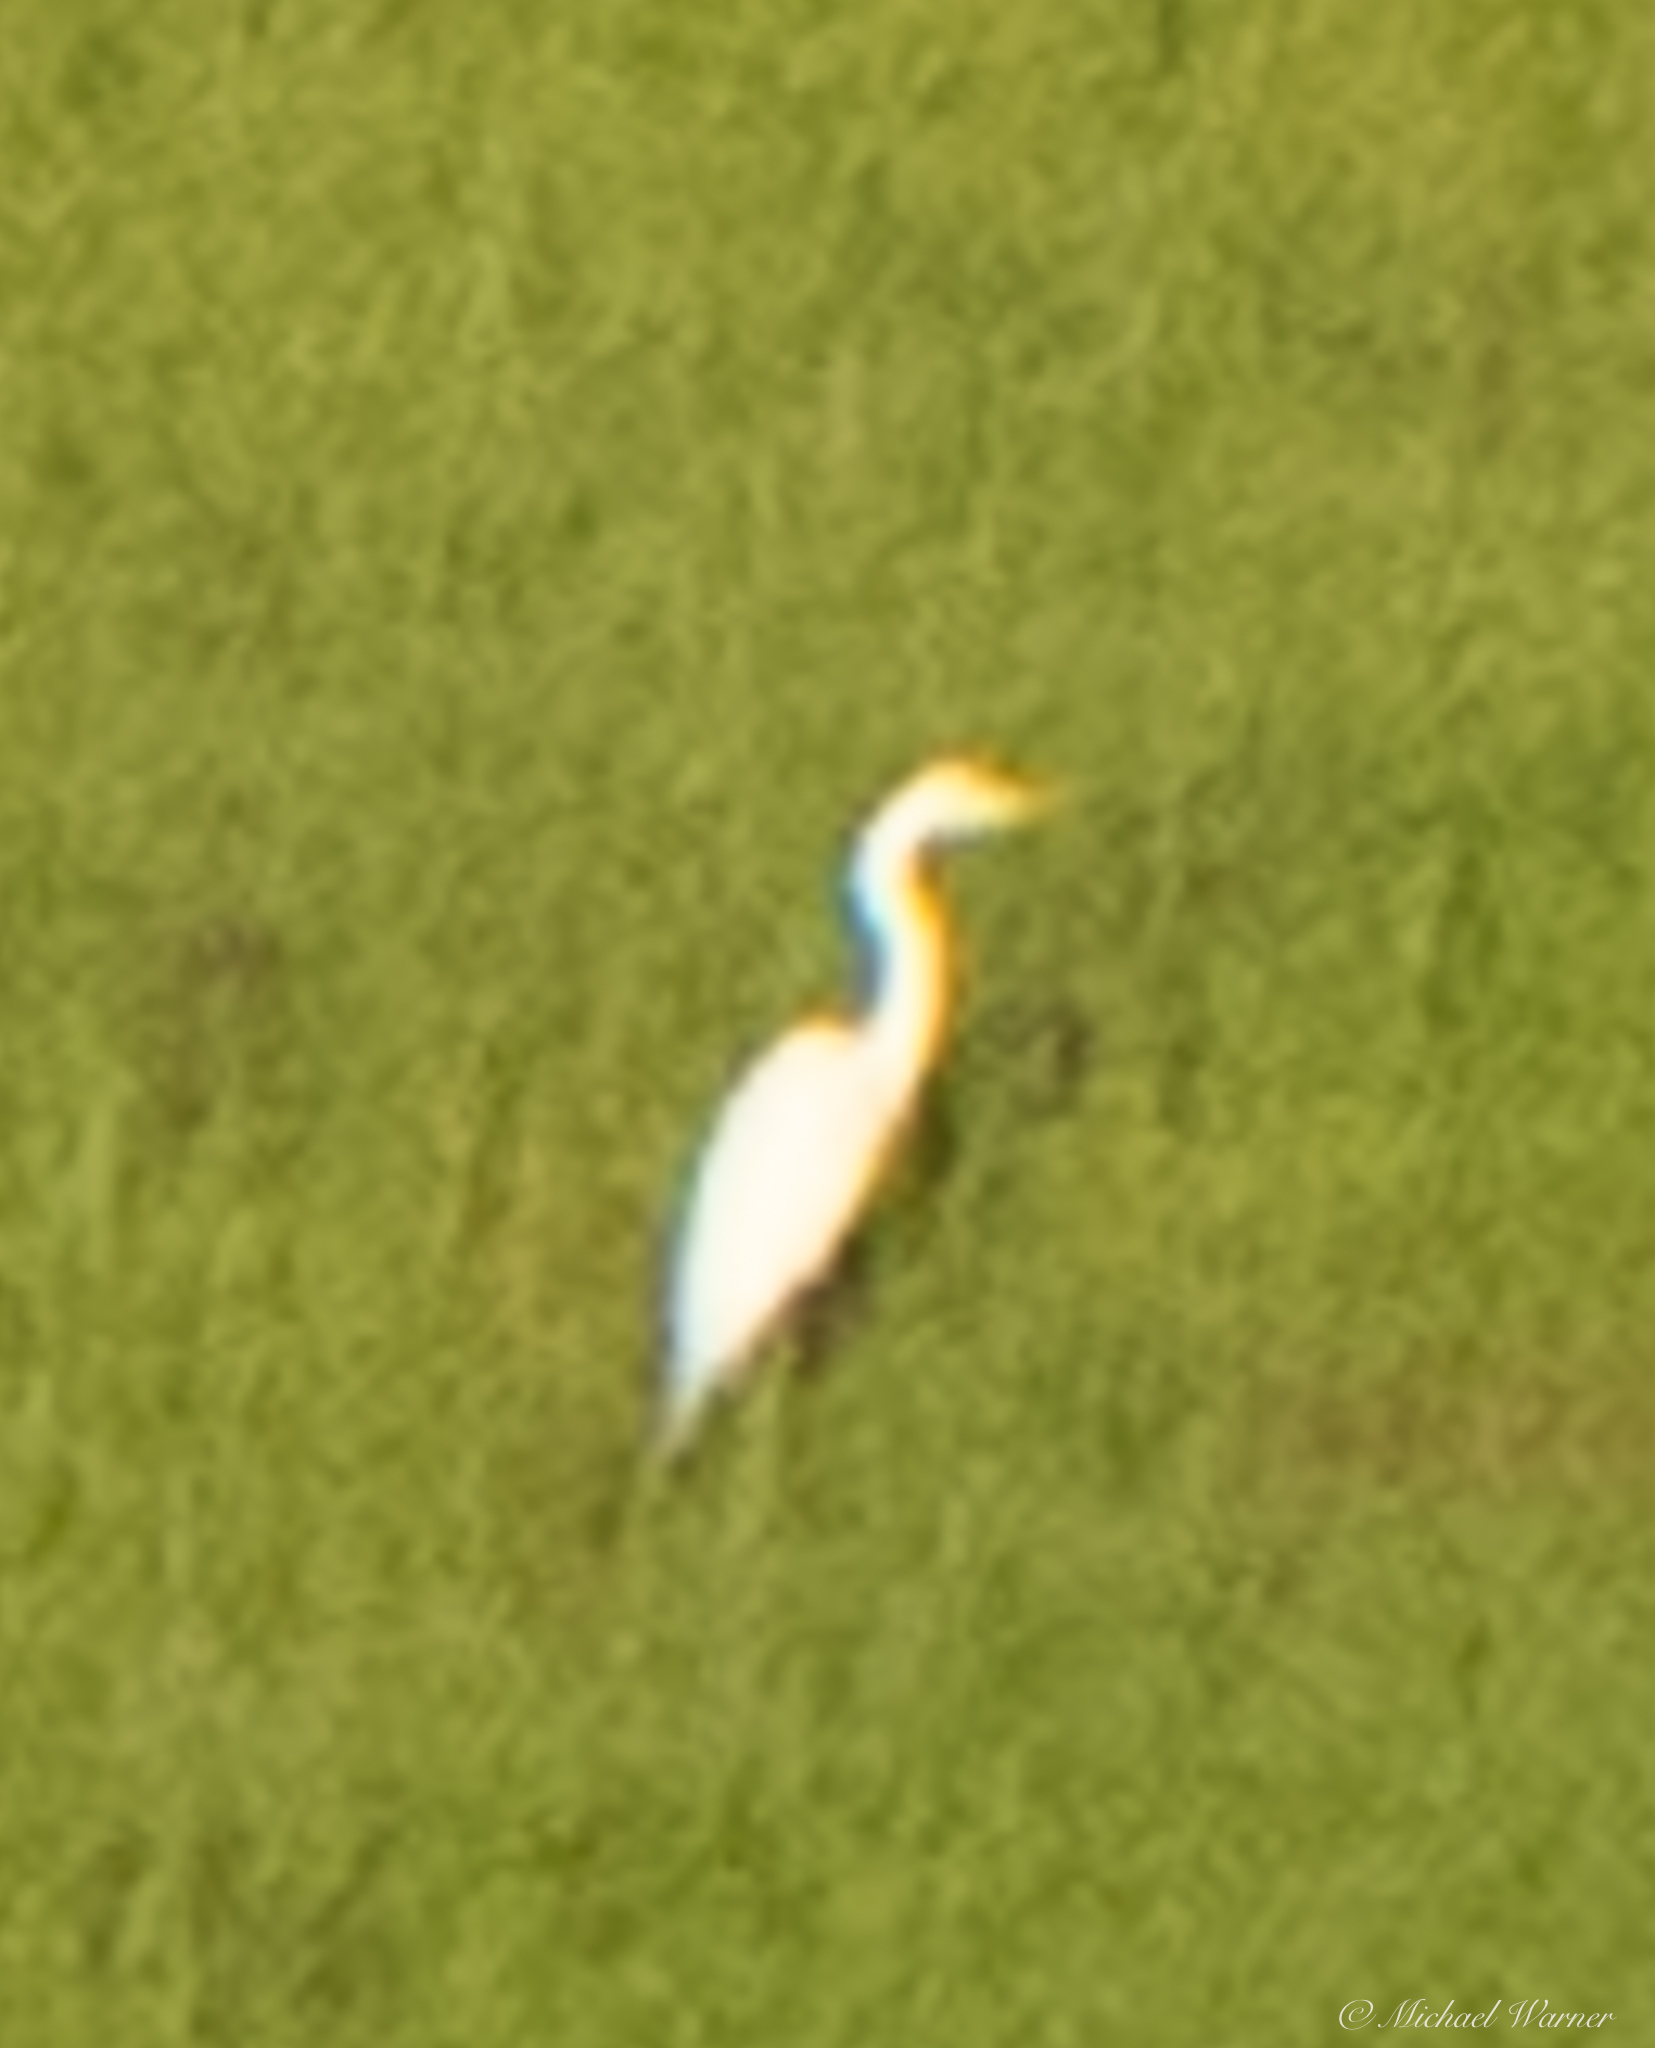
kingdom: Animalia
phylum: Chordata
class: Aves
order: Pelecaniformes
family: Ardeidae
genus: Ardea
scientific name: Ardea alba
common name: Great egret
